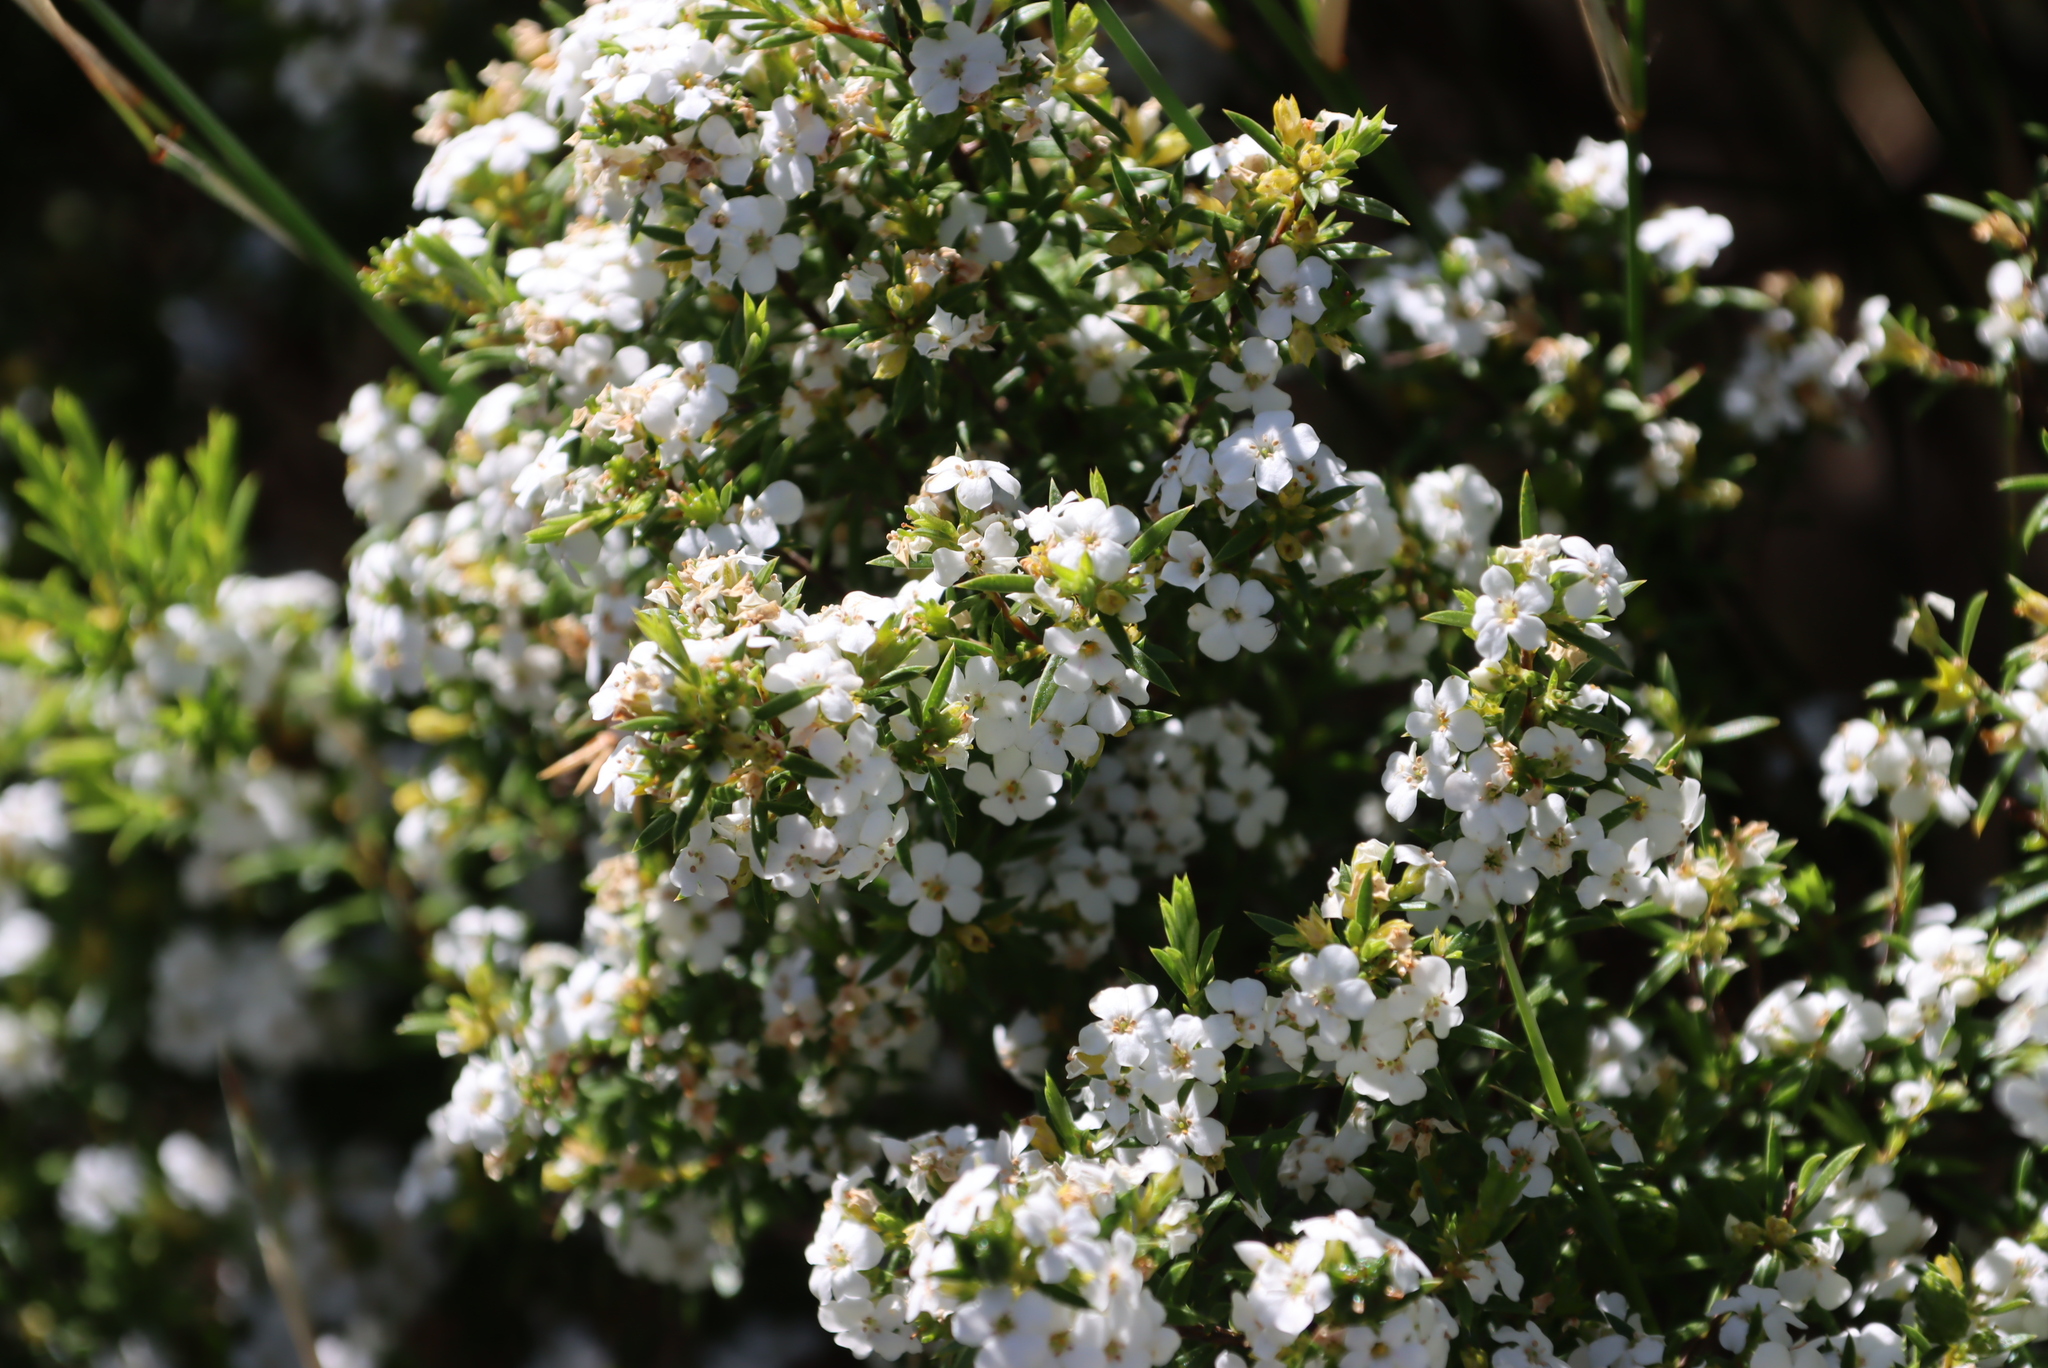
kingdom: Plantae
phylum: Tracheophyta
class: Magnoliopsida
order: Sapindales
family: Rutaceae
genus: Coleonema
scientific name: Coleonema album
